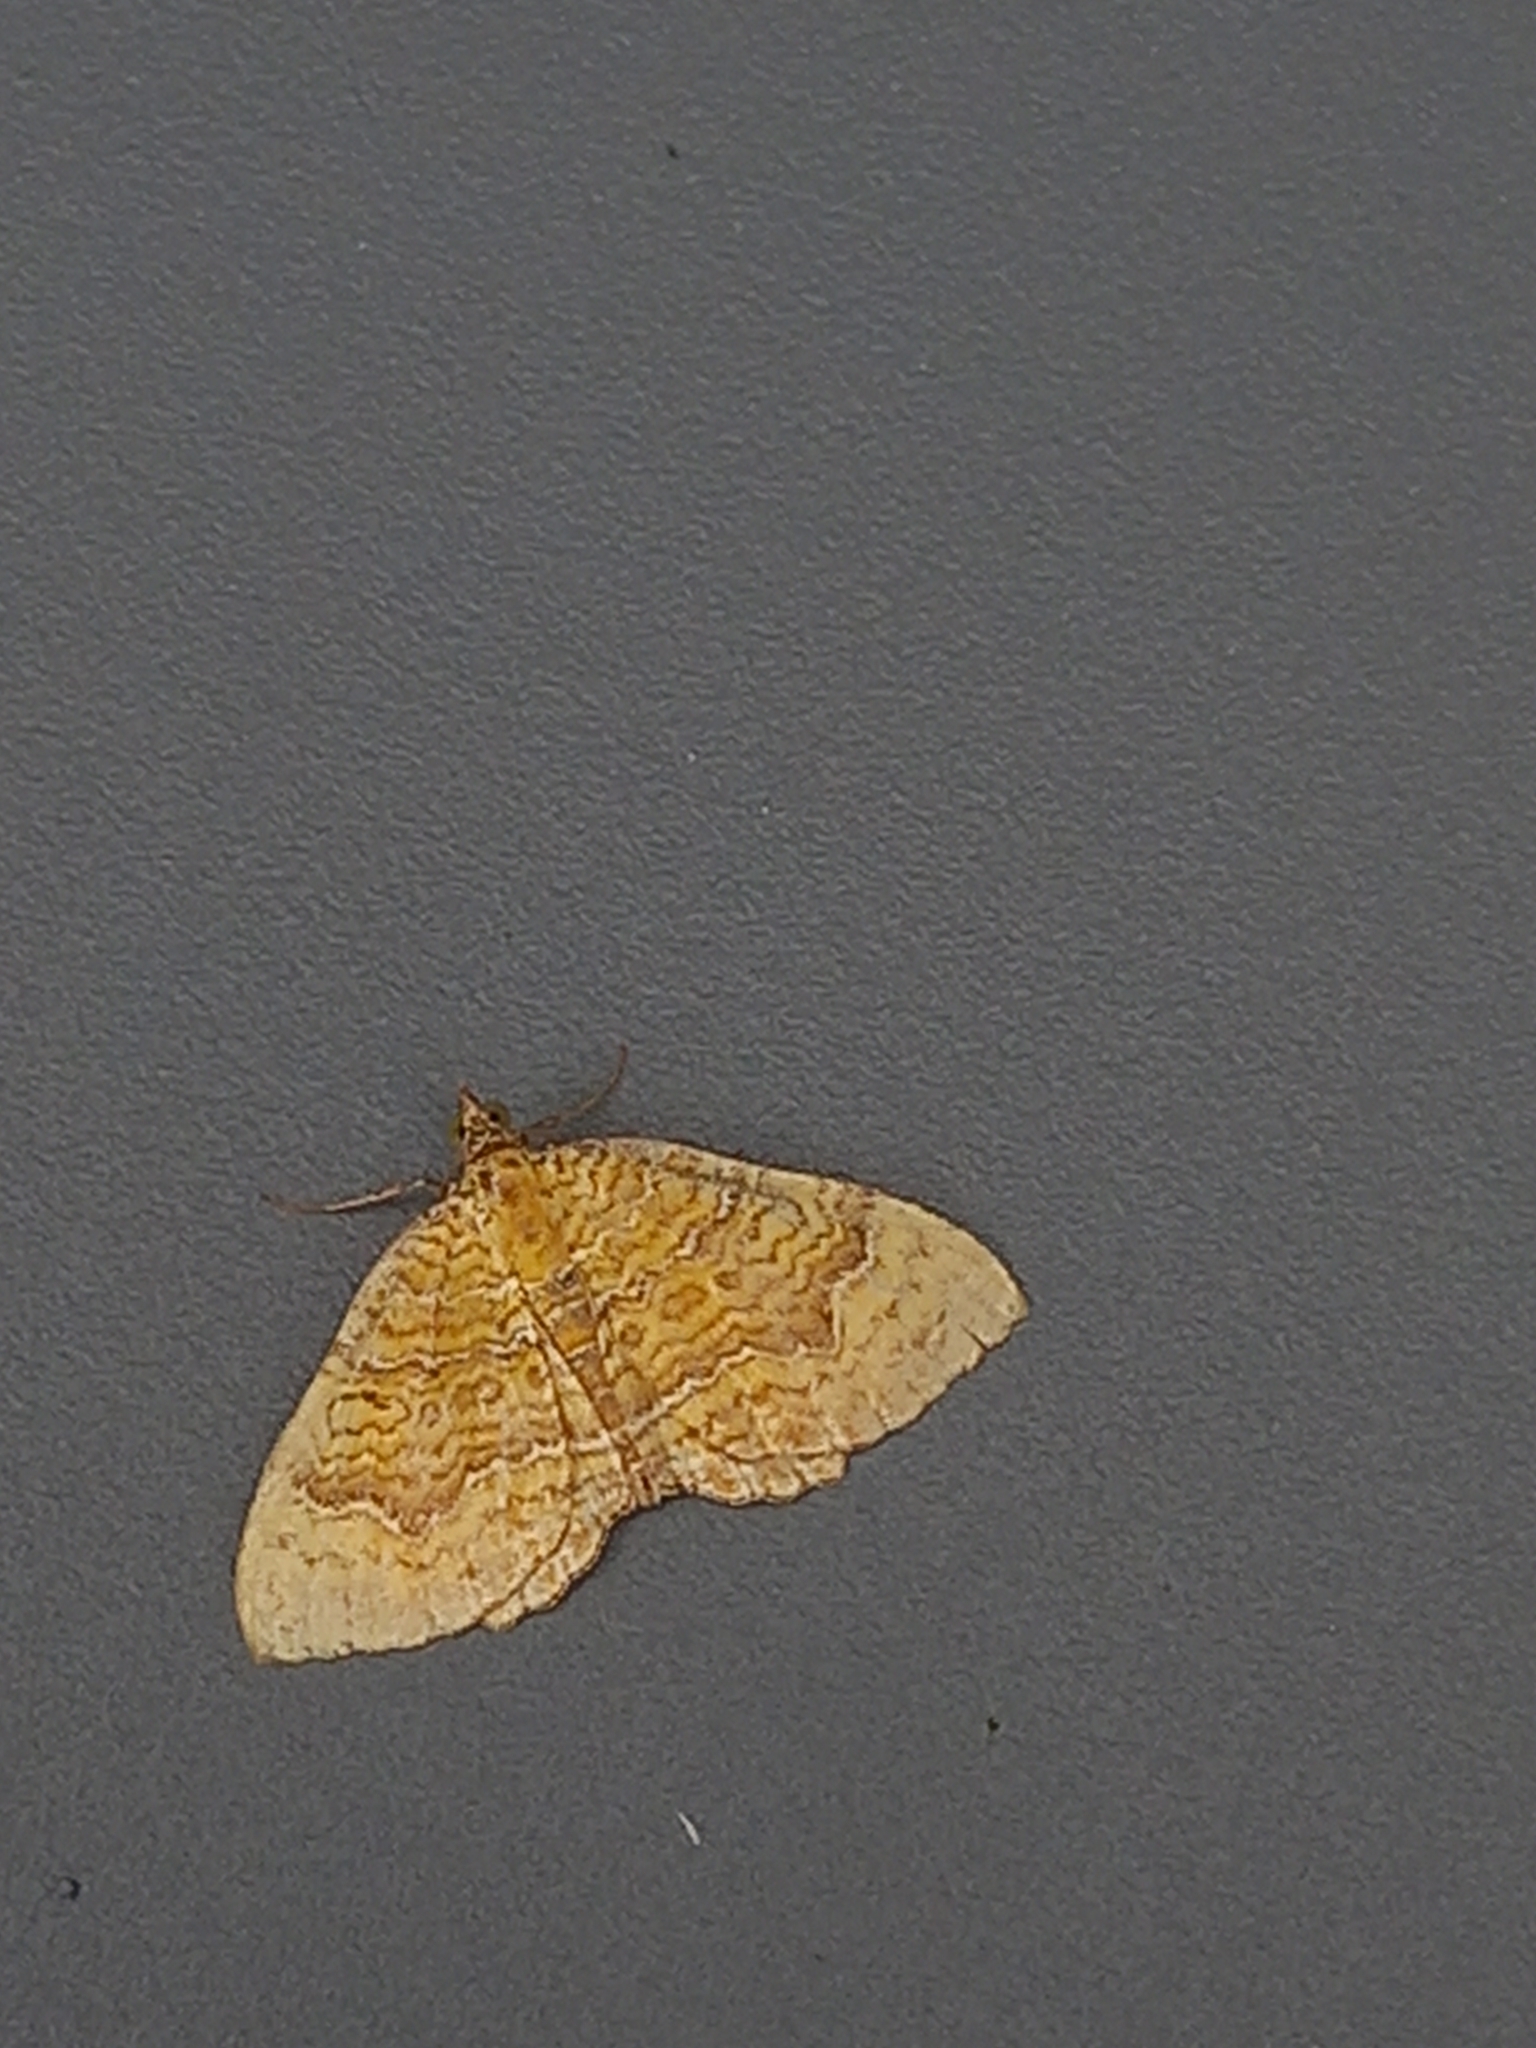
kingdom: Animalia
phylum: Arthropoda
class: Insecta
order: Lepidoptera
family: Geometridae
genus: Camptogramma
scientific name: Camptogramma bilineata
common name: Yellow shell
